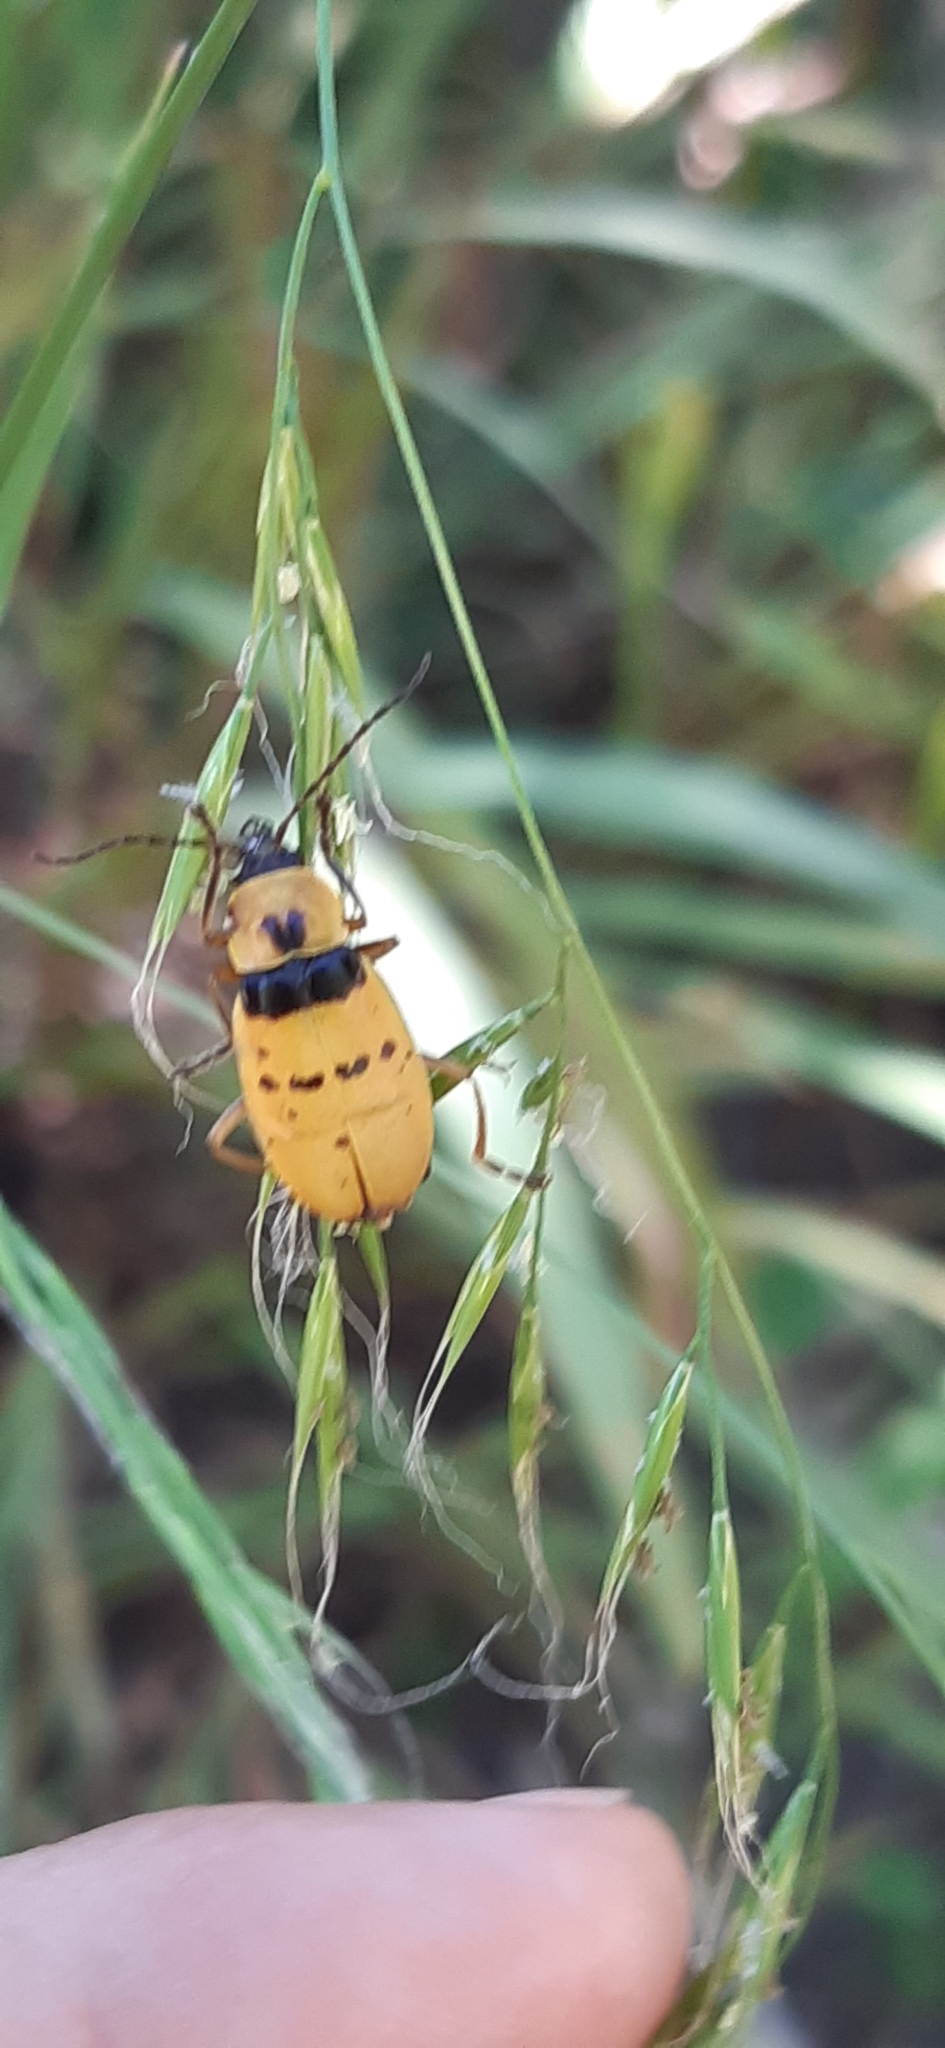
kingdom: Animalia
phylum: Arthropoda
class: Insecta
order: Coleoptera
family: Cantharidae
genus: Chauliognathus
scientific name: Chauliognathus
